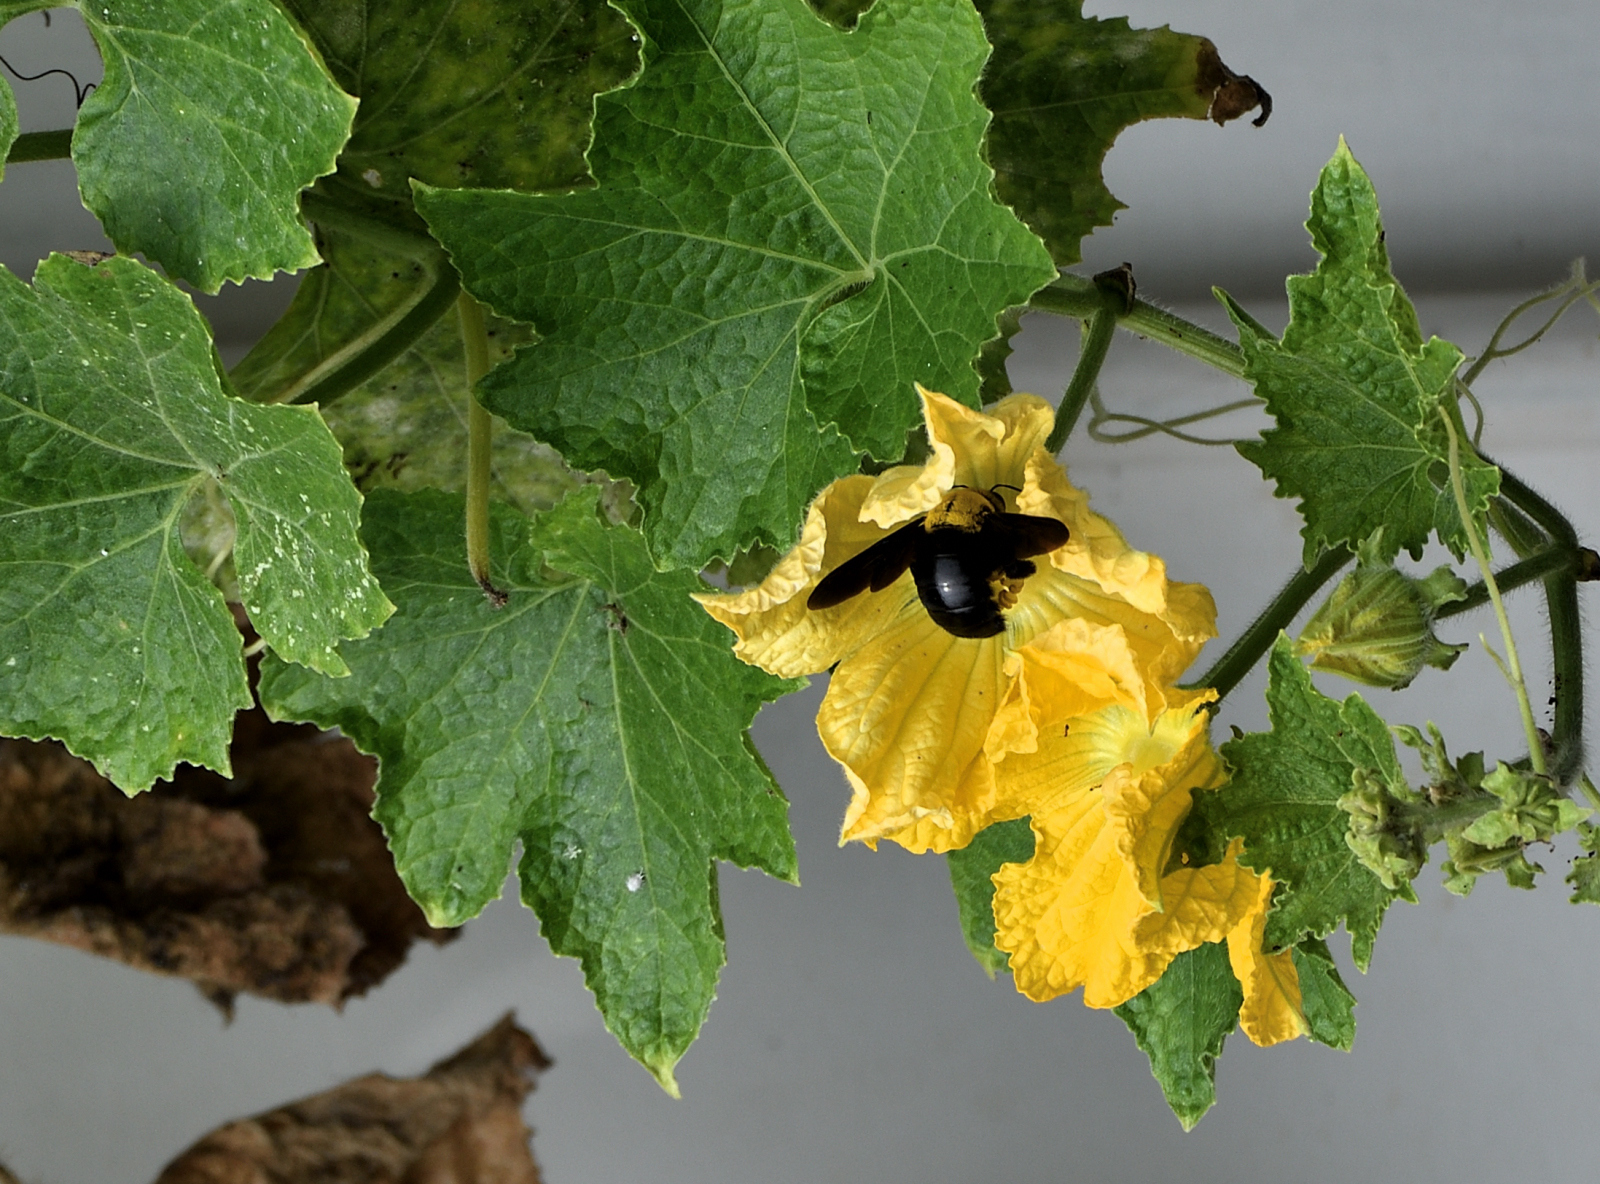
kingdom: Animalia
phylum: Arthropoda
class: Insecta
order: Hymenoptera
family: Apidae
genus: Xylocopa
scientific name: Xylocopa ruficornis
